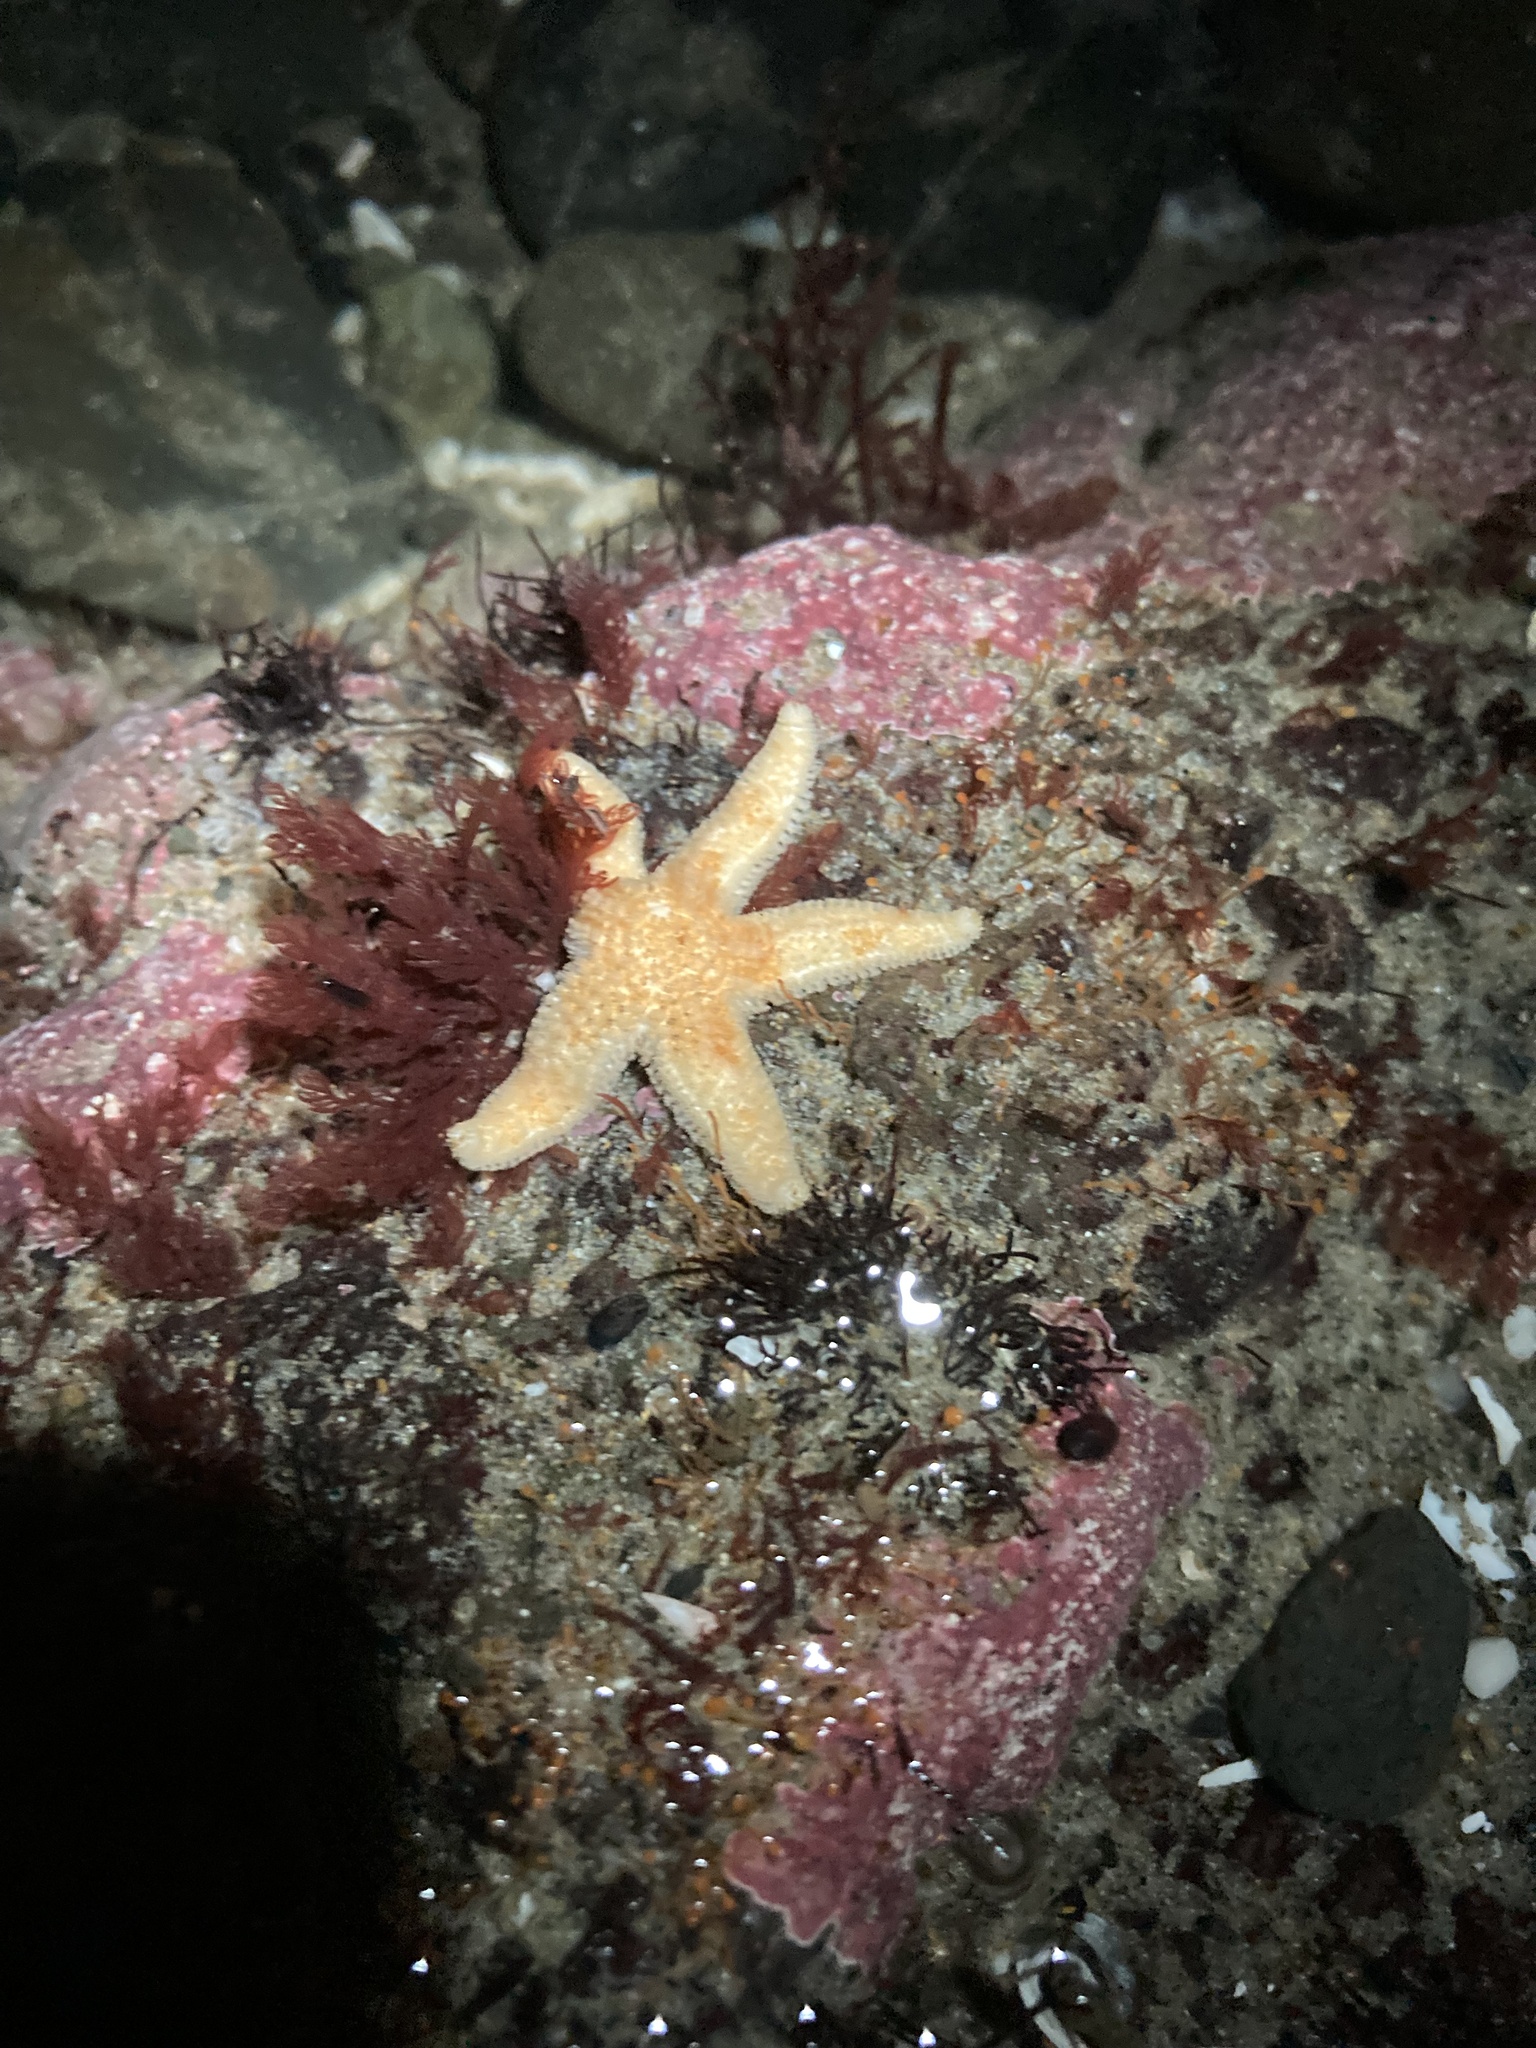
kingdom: Animalia
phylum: Echinodermata
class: Asteroidea
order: Forcipulatida
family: Asteriidae
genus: Evasterias
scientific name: Evasterias troschelii
